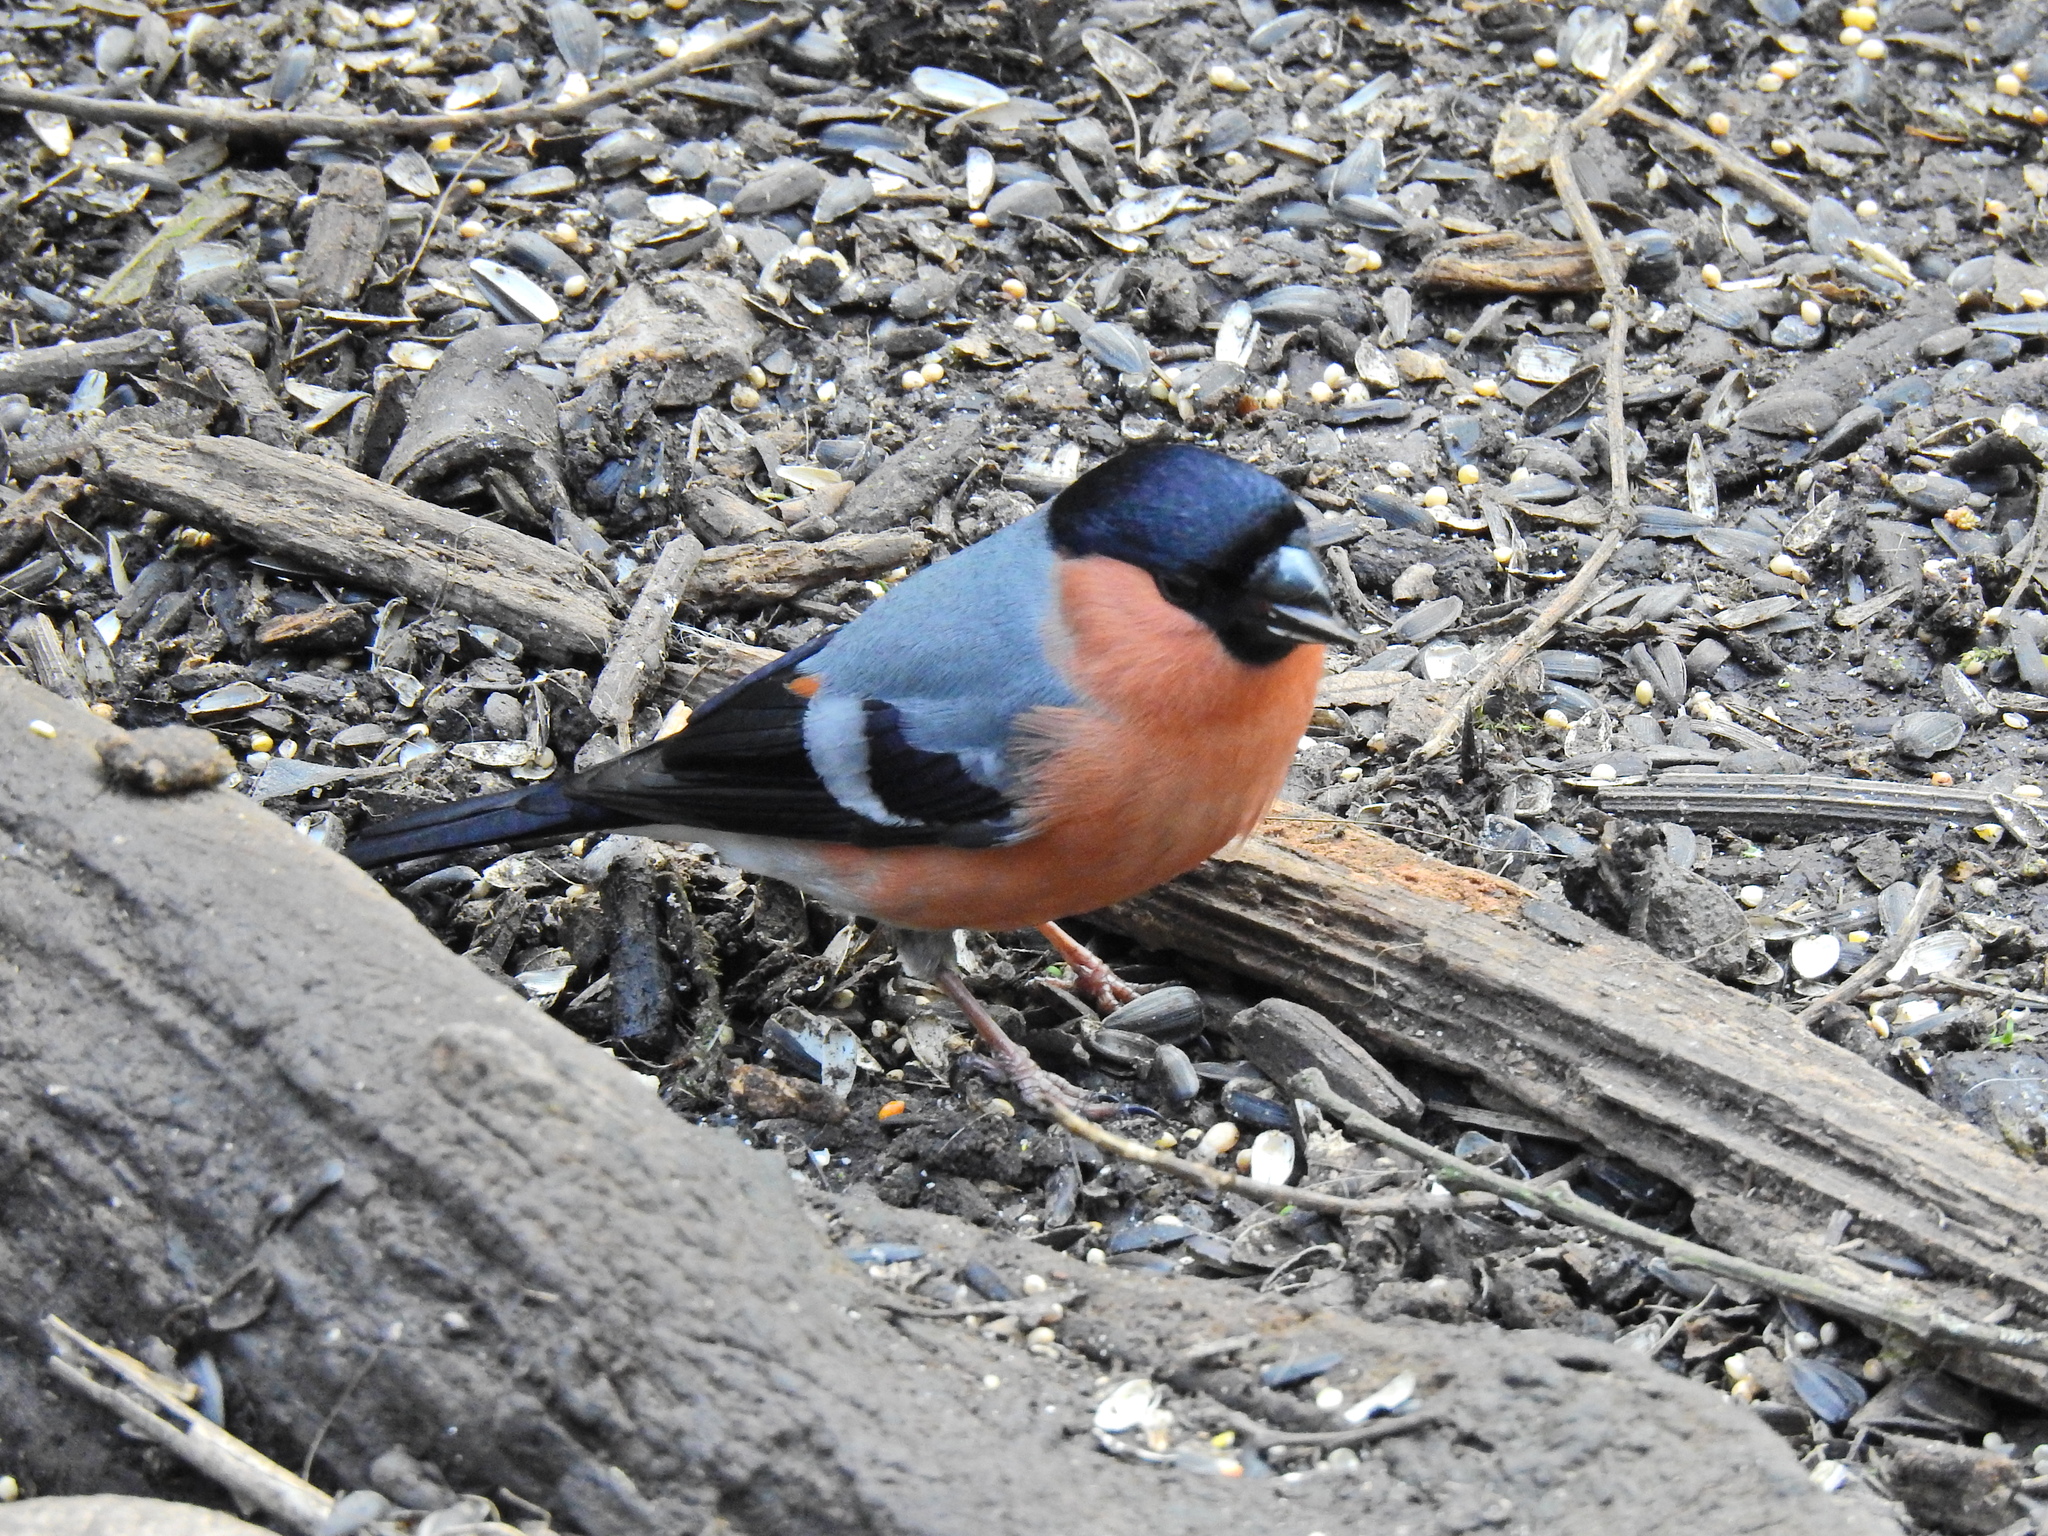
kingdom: Animalia
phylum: Chordata
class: Aves
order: Passeriformes
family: Fringillidae
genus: Pyrrhula
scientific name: Pyrrhula pyrrhula
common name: Eurasian bullfinch
